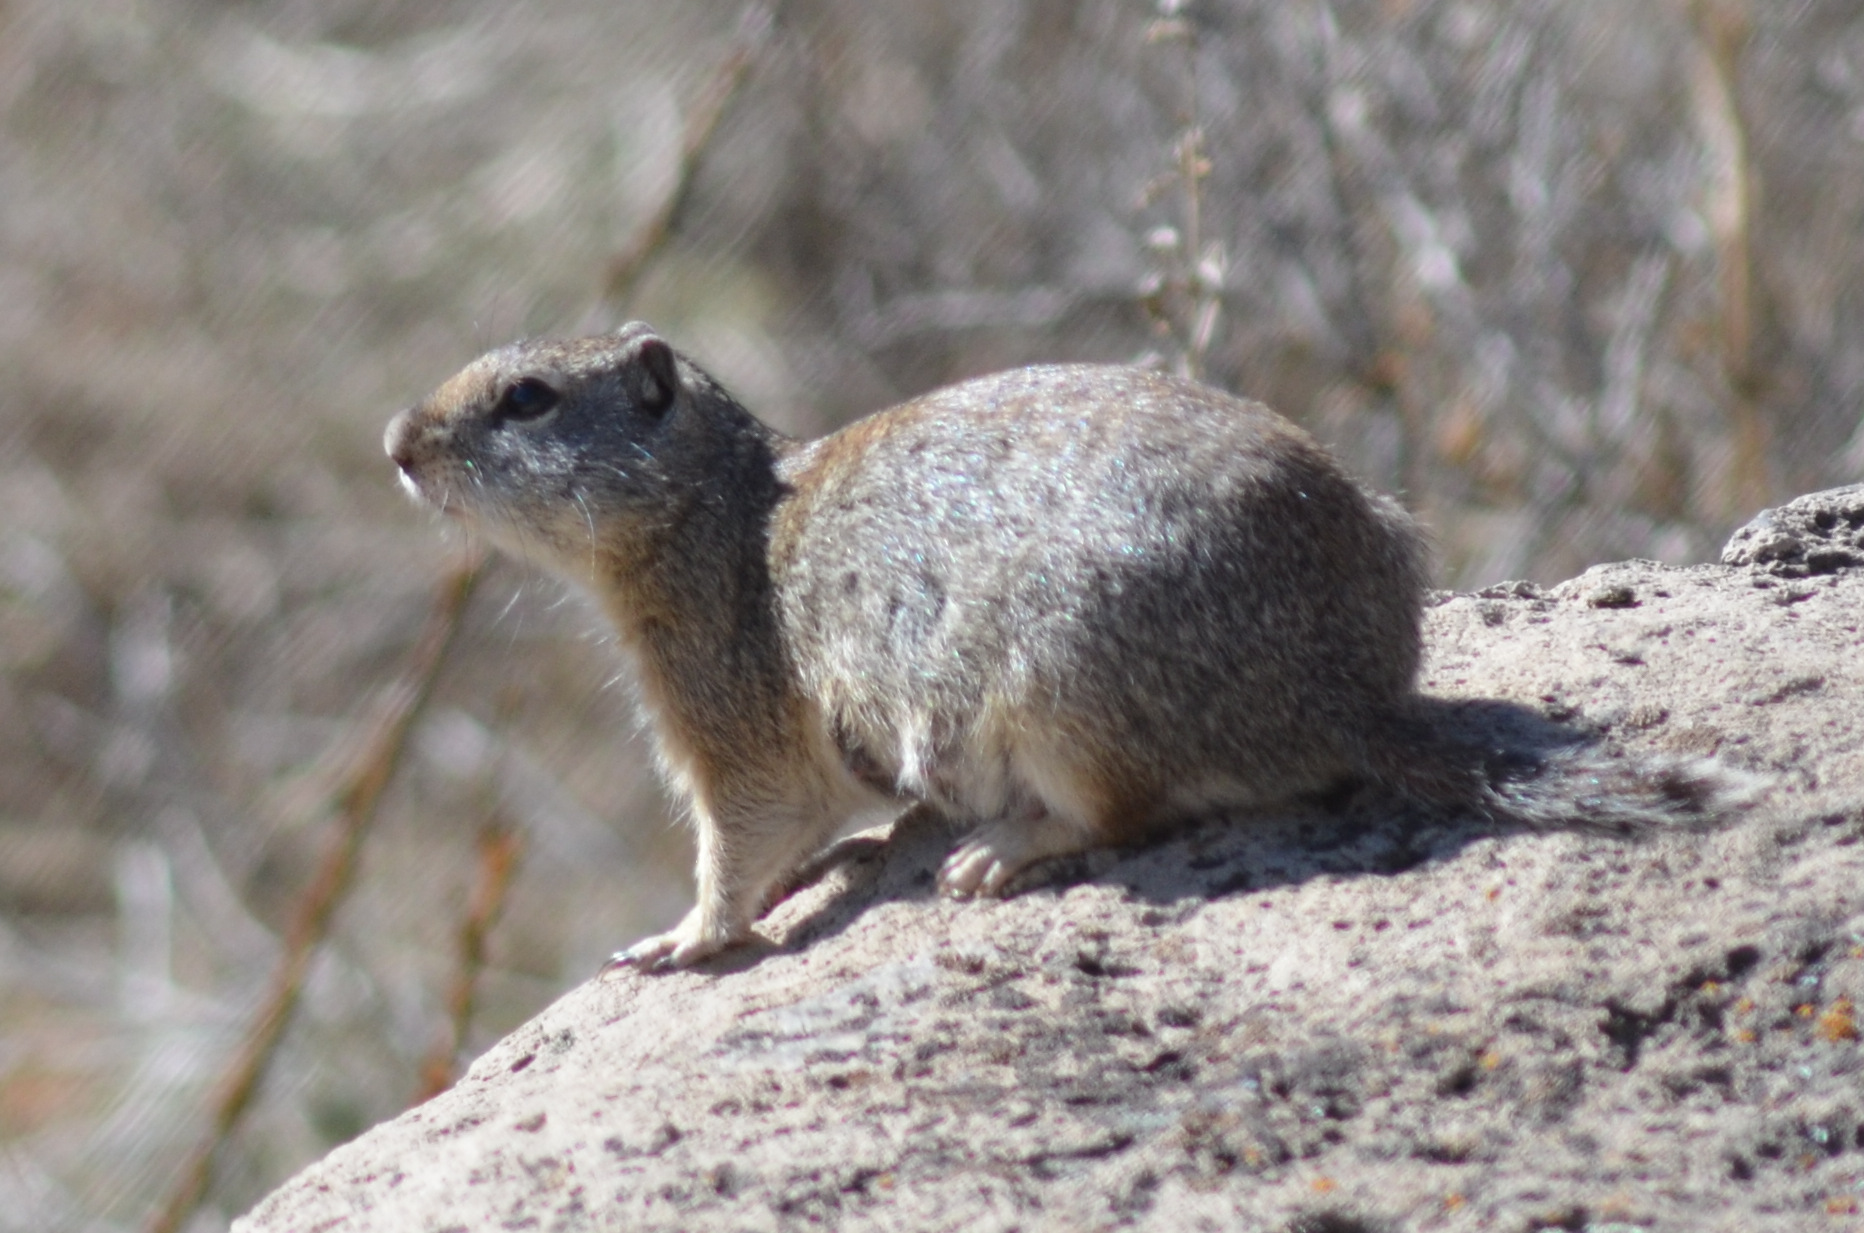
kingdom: Animalia
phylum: Chordata
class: Mammalia
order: Rodentia
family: Sciuridae
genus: Urocitellus
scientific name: Urocitellus beldingi
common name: Belding's ground squirrel
